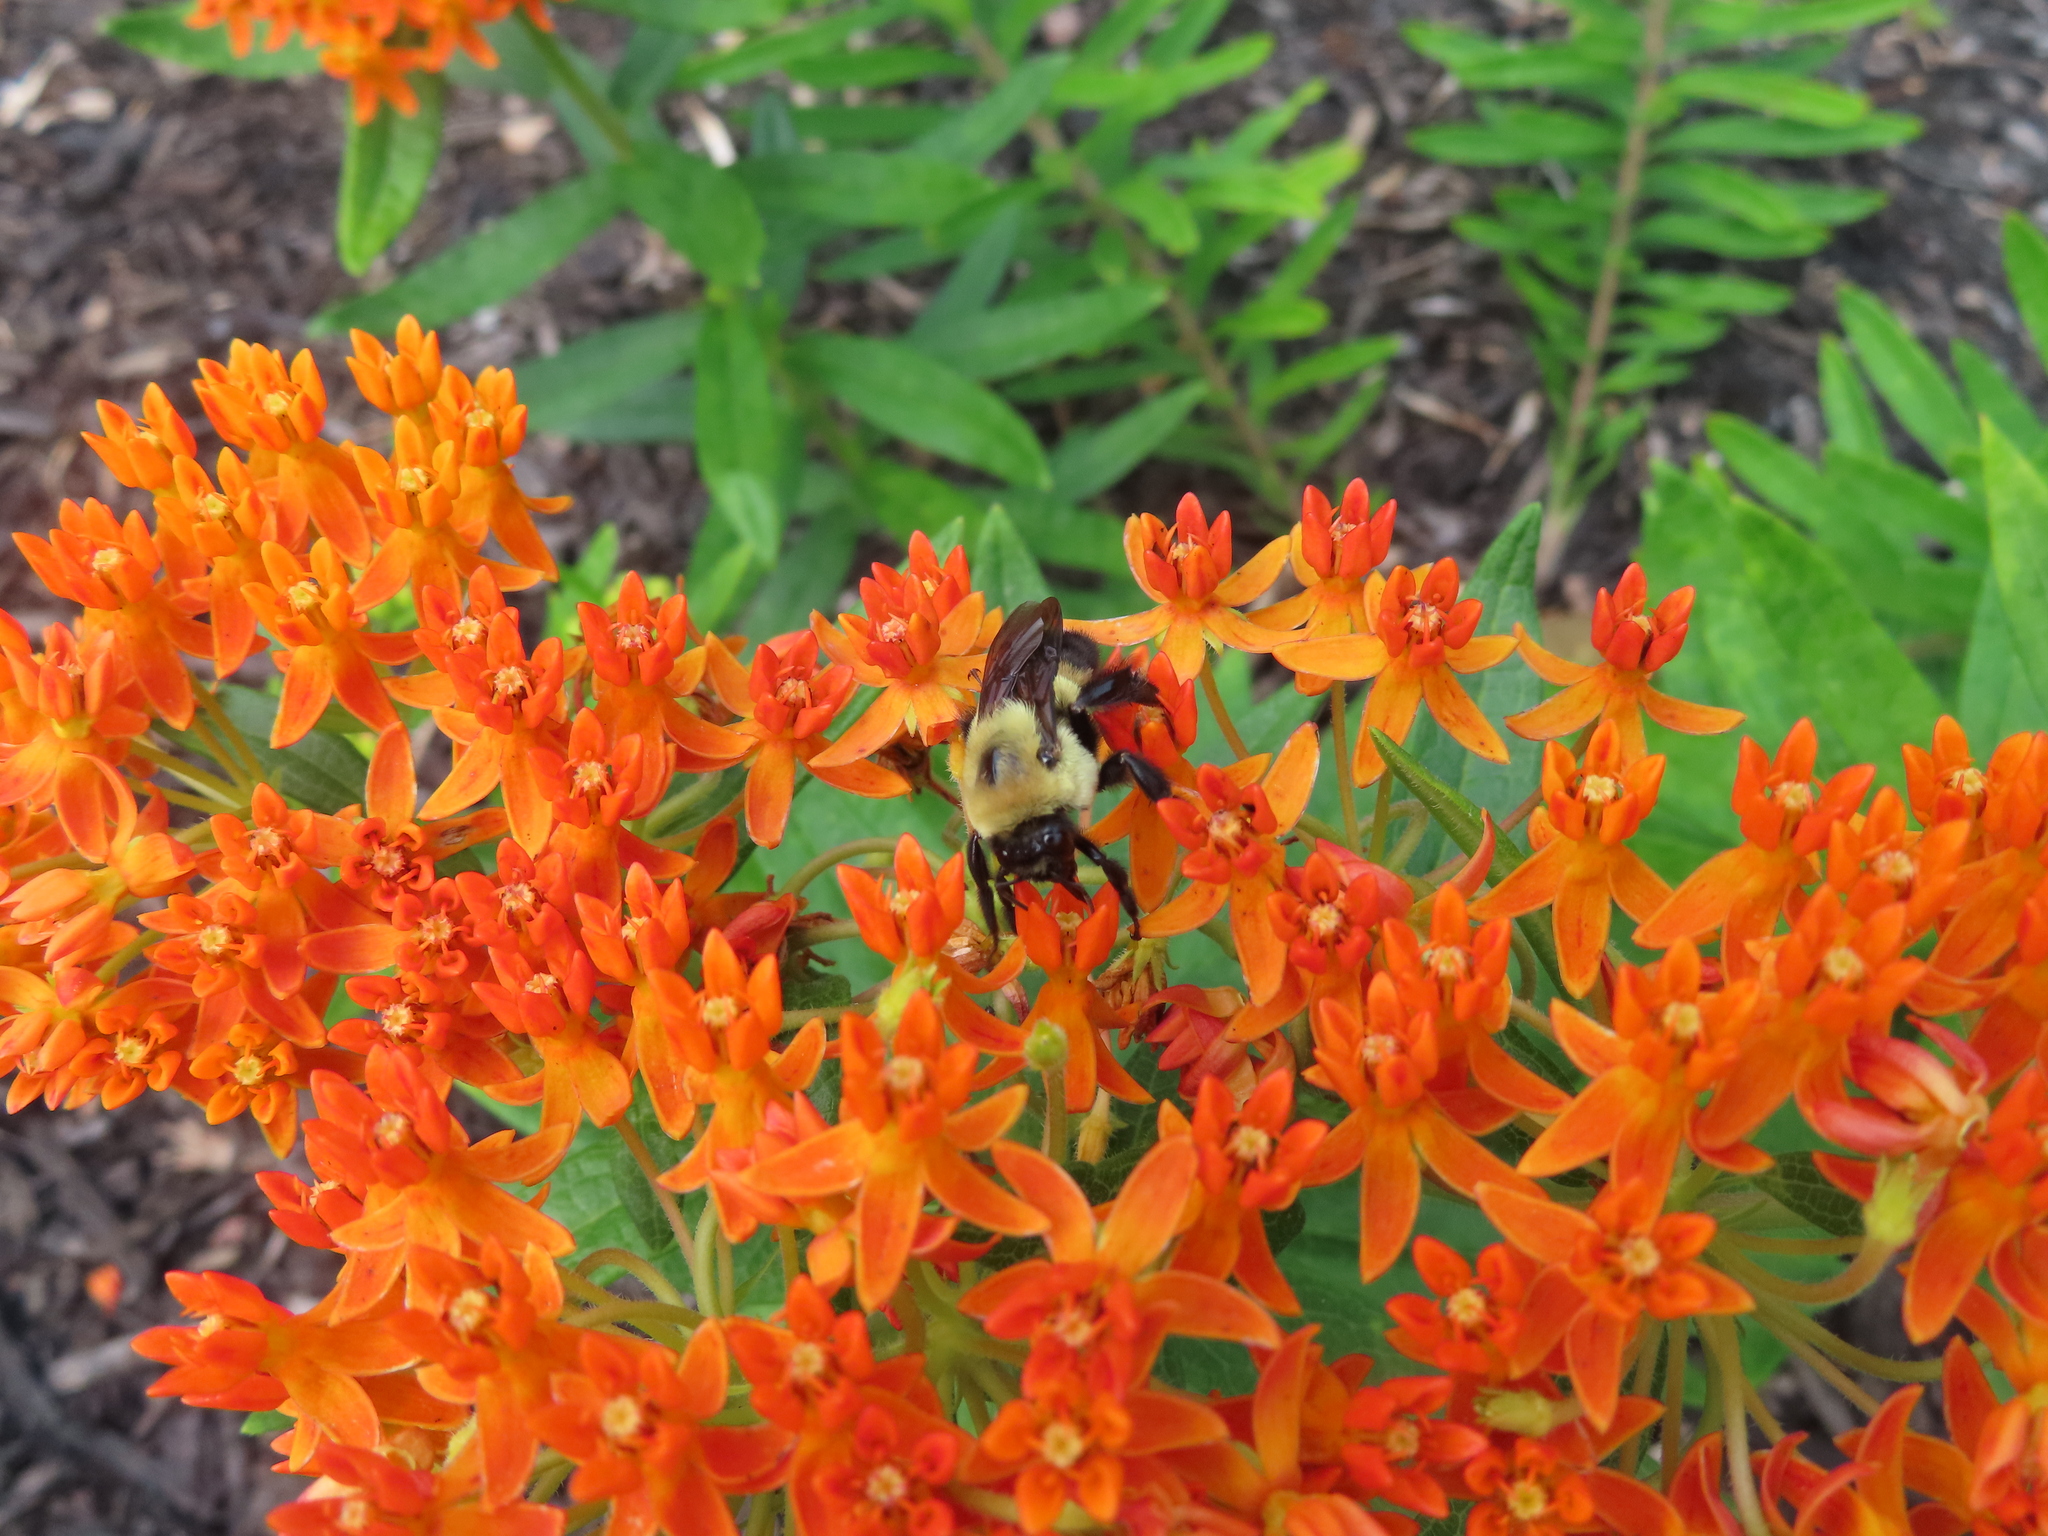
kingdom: Animalia
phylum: Arthropoda
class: Insecta
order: Hymenoptera
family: Apidae
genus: Bombus
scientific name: Bombus griseocollis
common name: Brown-belted bumble bee
